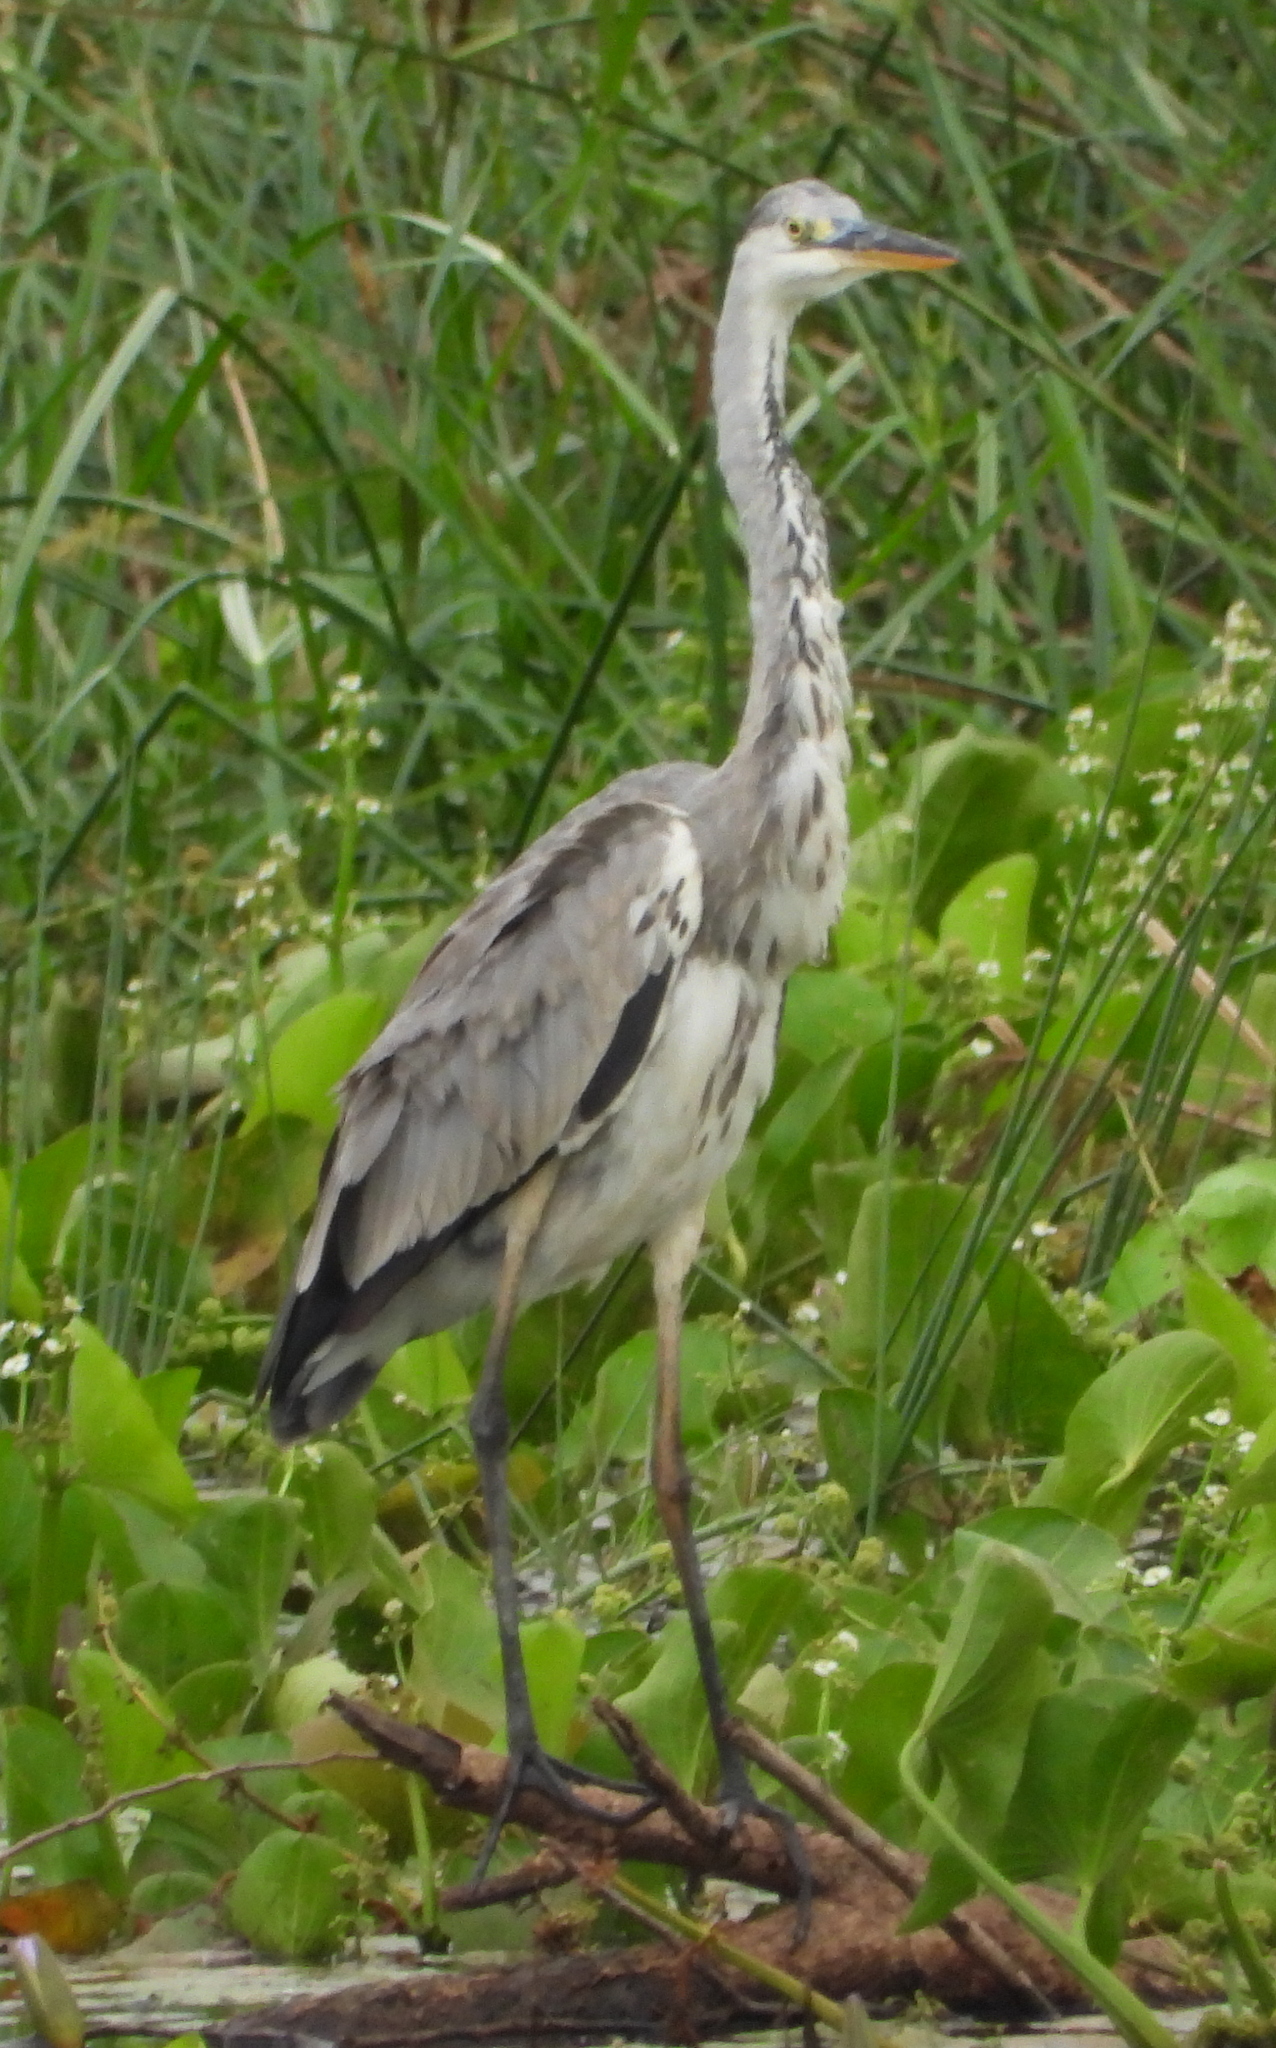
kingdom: Animalia
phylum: Chordata
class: Aves
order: Pelecaniformes
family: Ardeidae
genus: Ardea
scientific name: Ardea cinerea
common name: Grey heron
